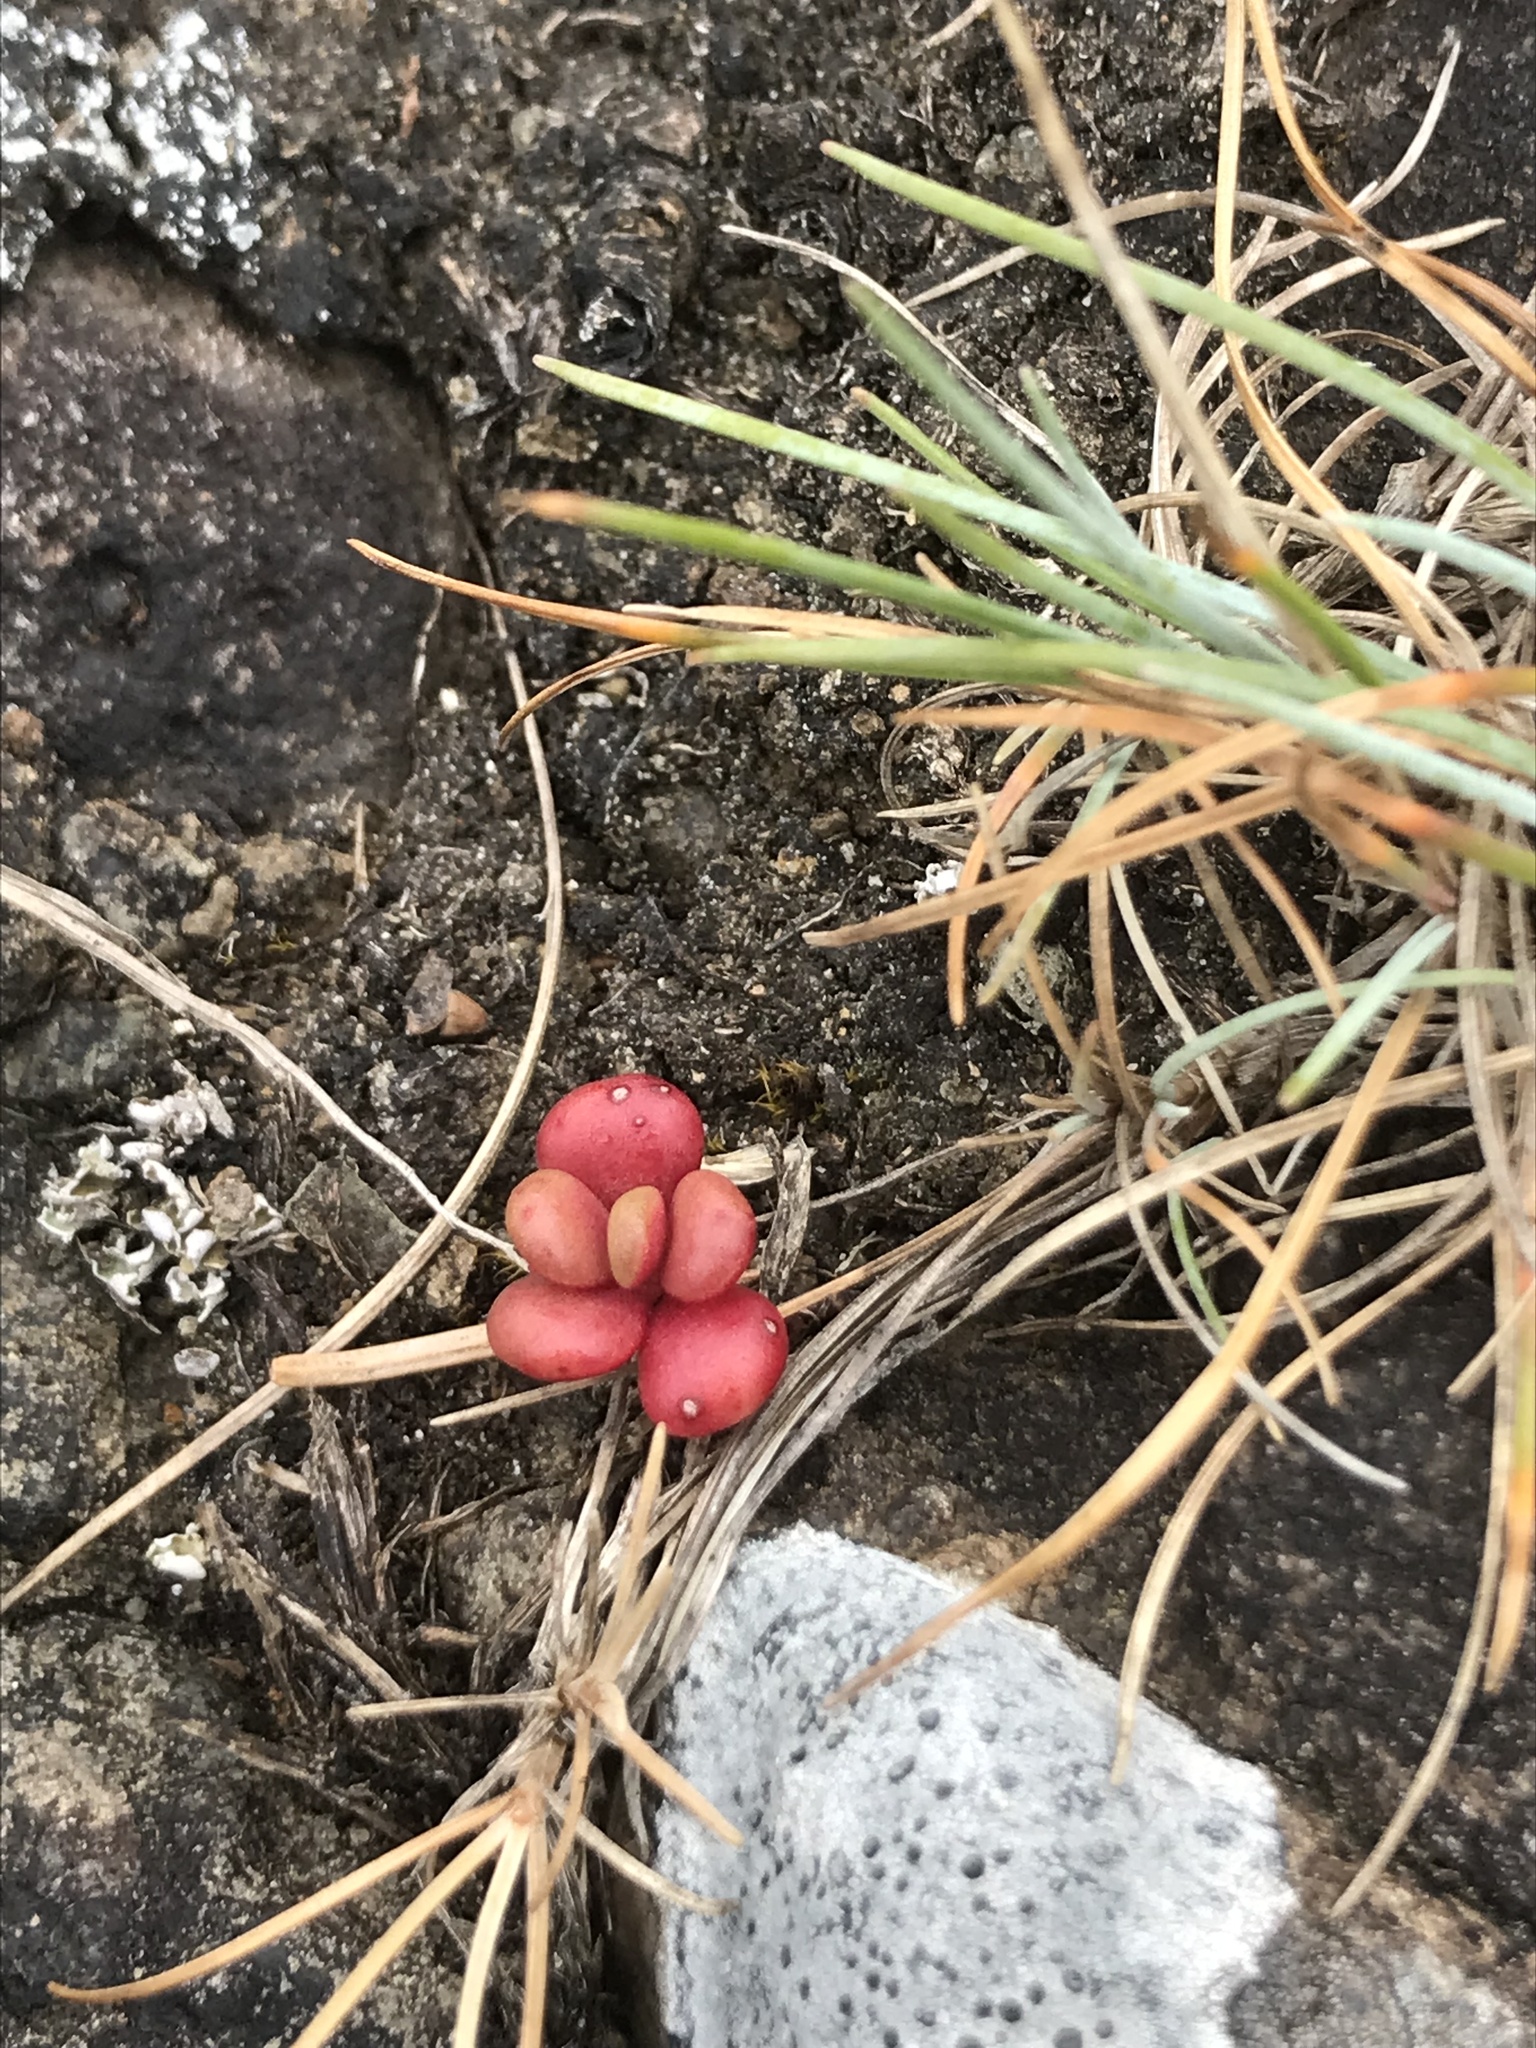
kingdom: Plantae
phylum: Tracheophyta
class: Magnoliopsida
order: Saxifragales
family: Crassulaceae
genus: Sedum
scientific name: Sedum oreganum
